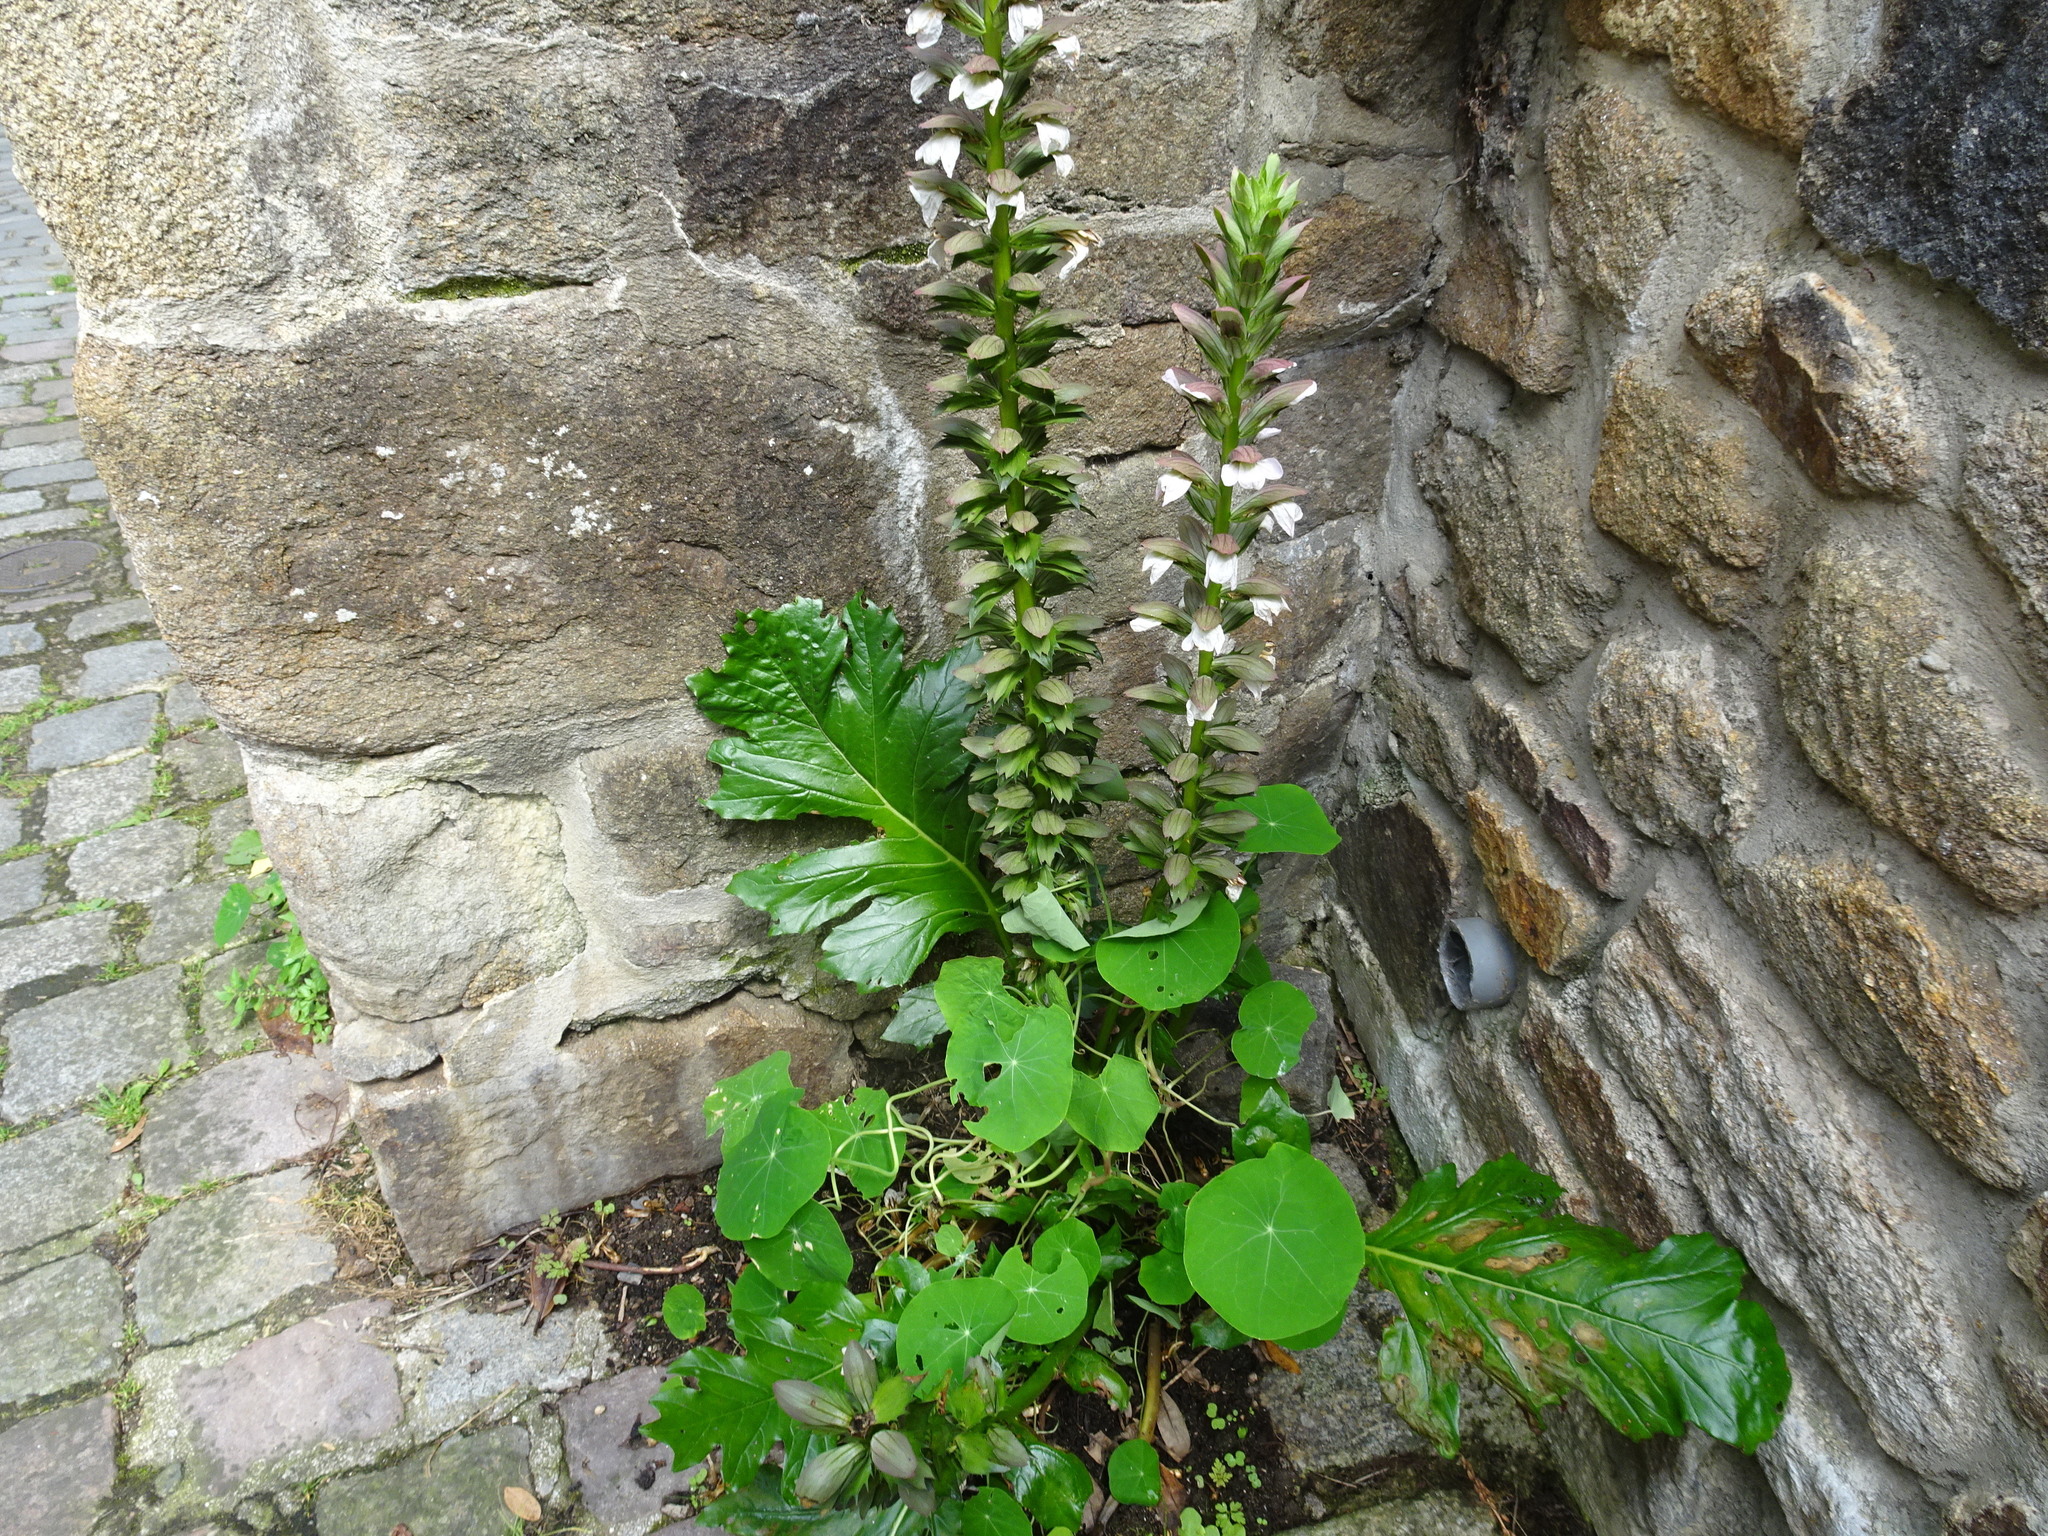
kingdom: Plantae
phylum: Tracheophyta
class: Magnoliopsida
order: Lamiales
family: Acanthaceae
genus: Acanthus
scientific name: Acanthus mollis
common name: Bear's-breech
